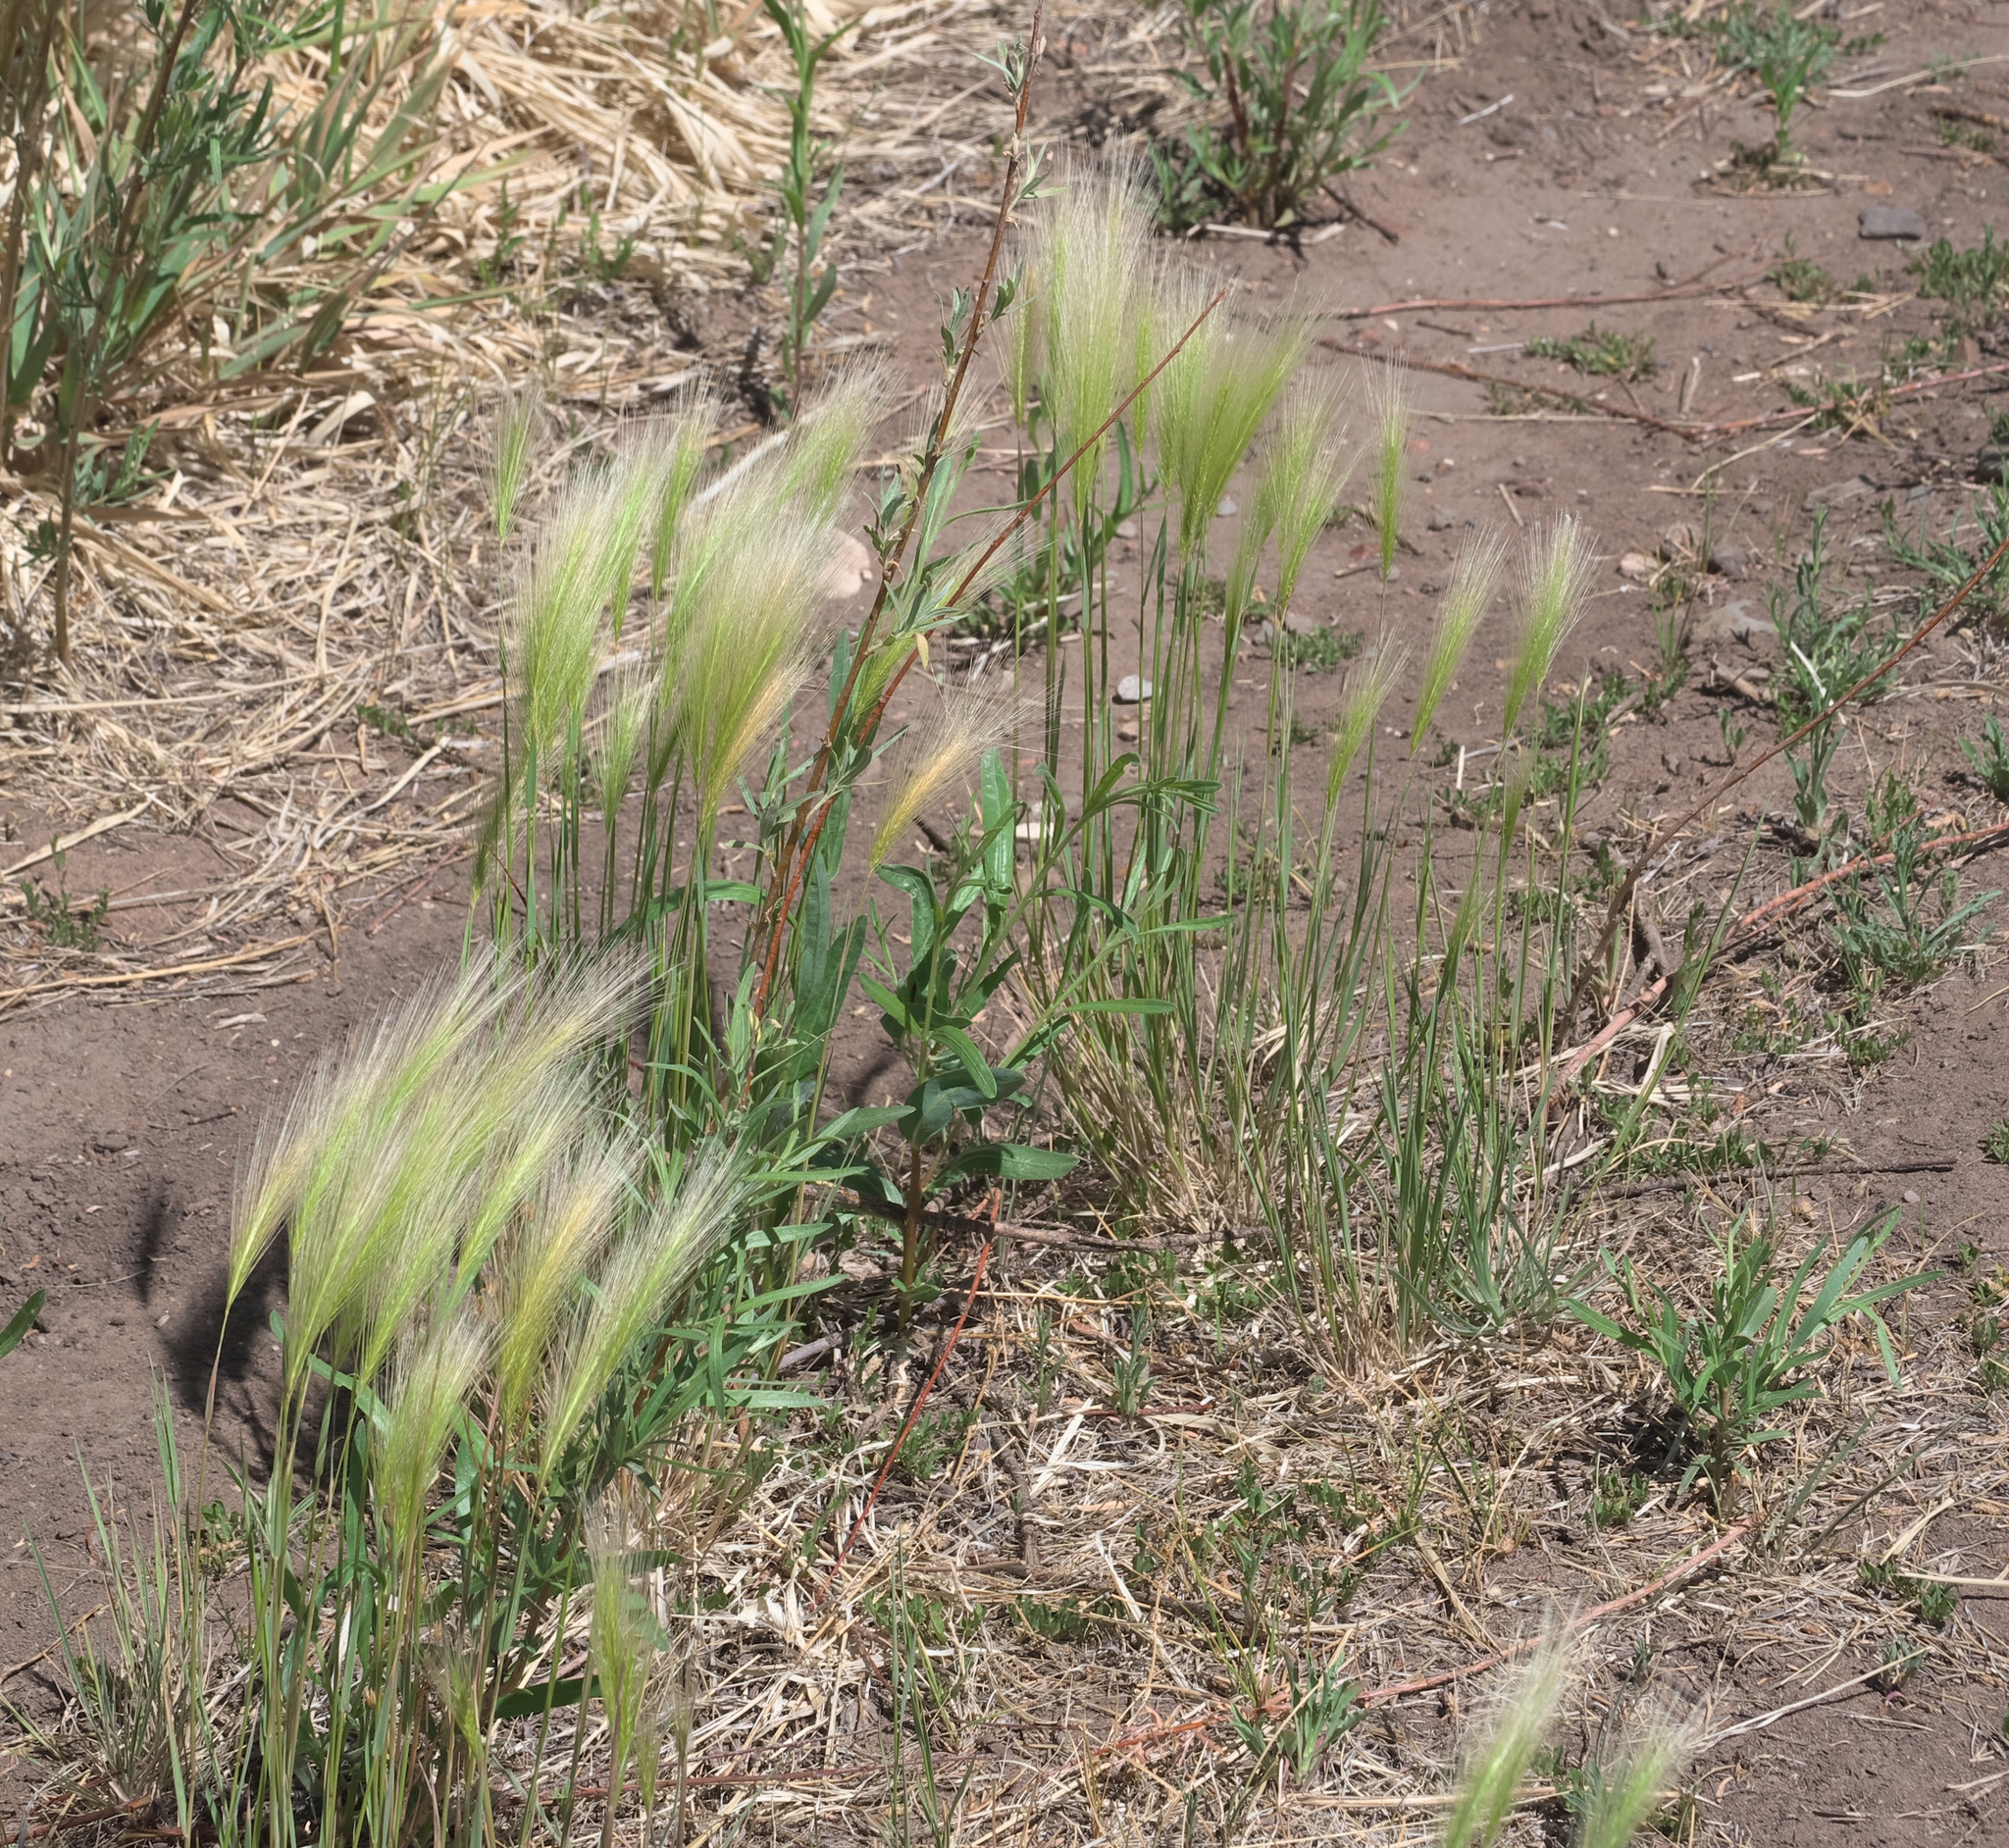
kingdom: Plantae
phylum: Tracheophyta
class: Liliopsida
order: Poales
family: Poaceae
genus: Hordeum
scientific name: Hordeum jubatum
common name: Foxtail barley
